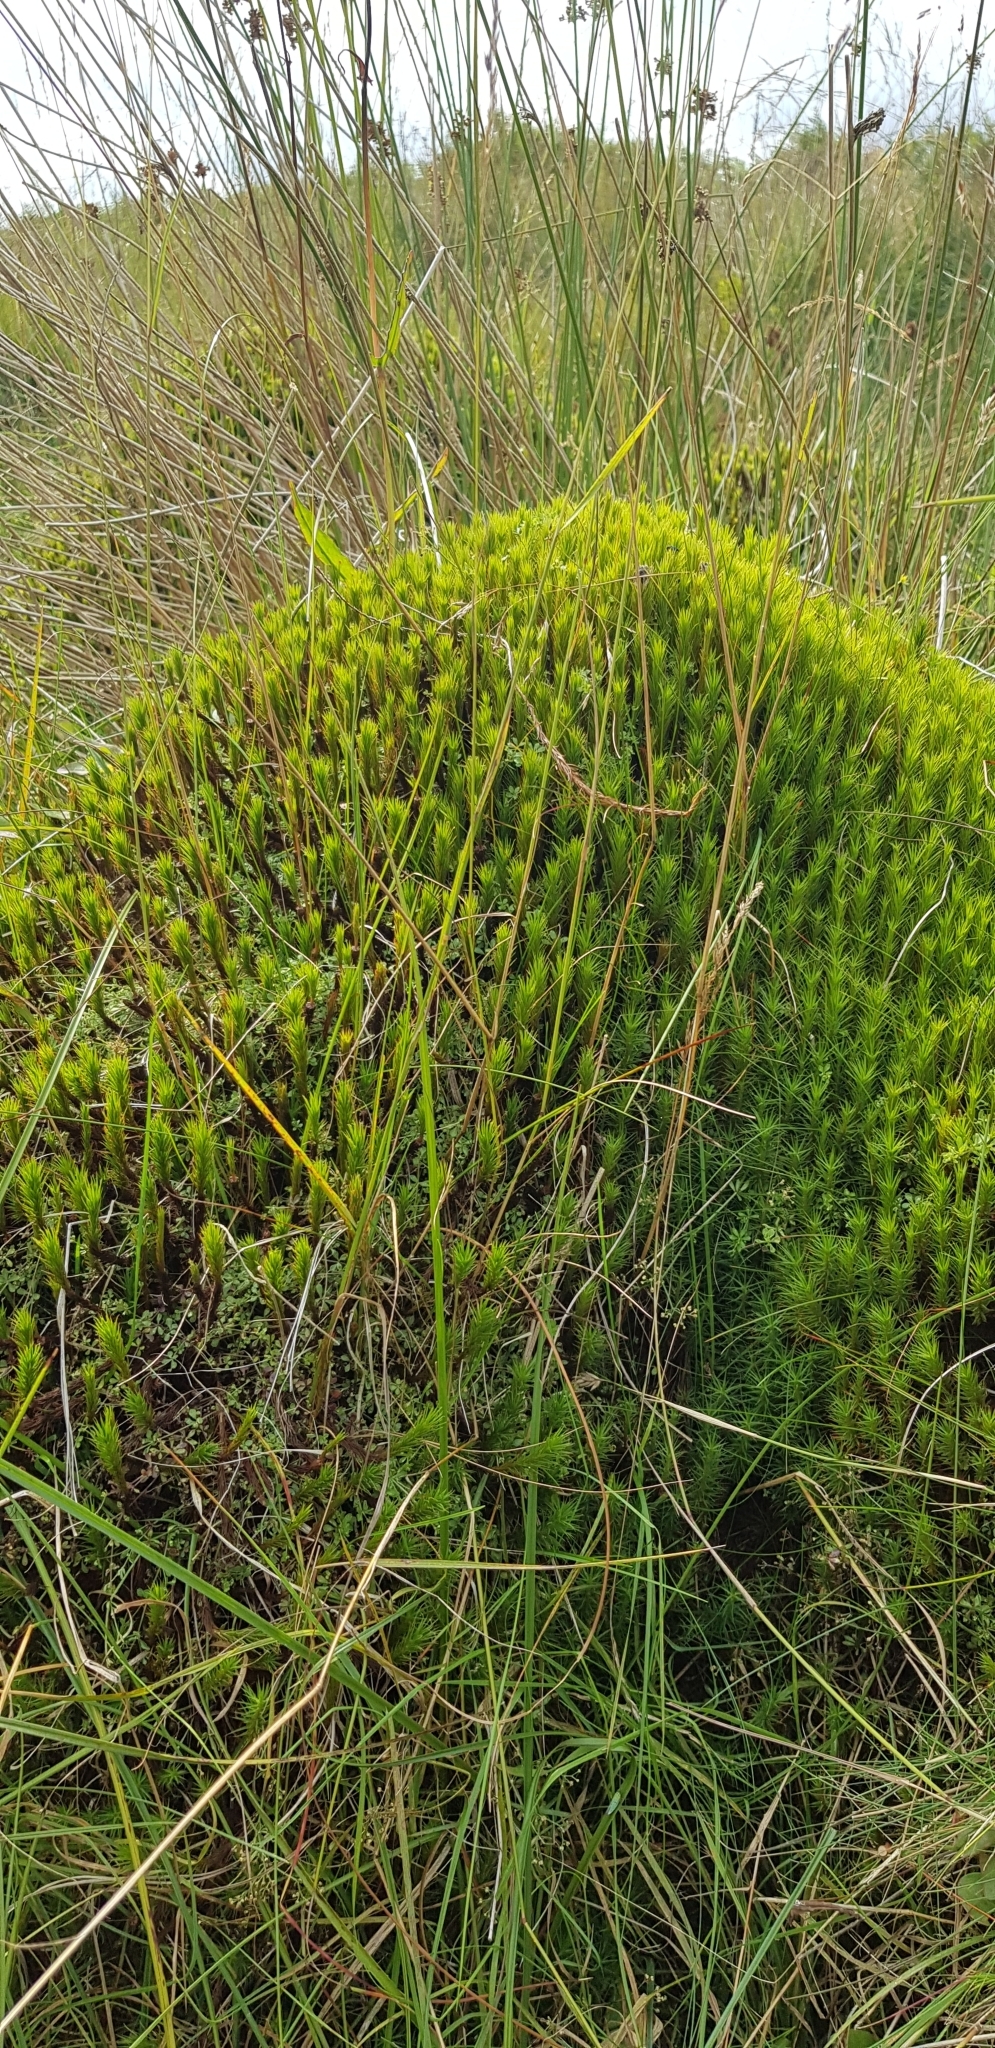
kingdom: Plantae
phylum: Bryophyta
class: Polytrichopsida
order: Polytrichales
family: Polytrichaceae
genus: Polytrichum
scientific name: Polytrichum commune
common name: Common haircap
